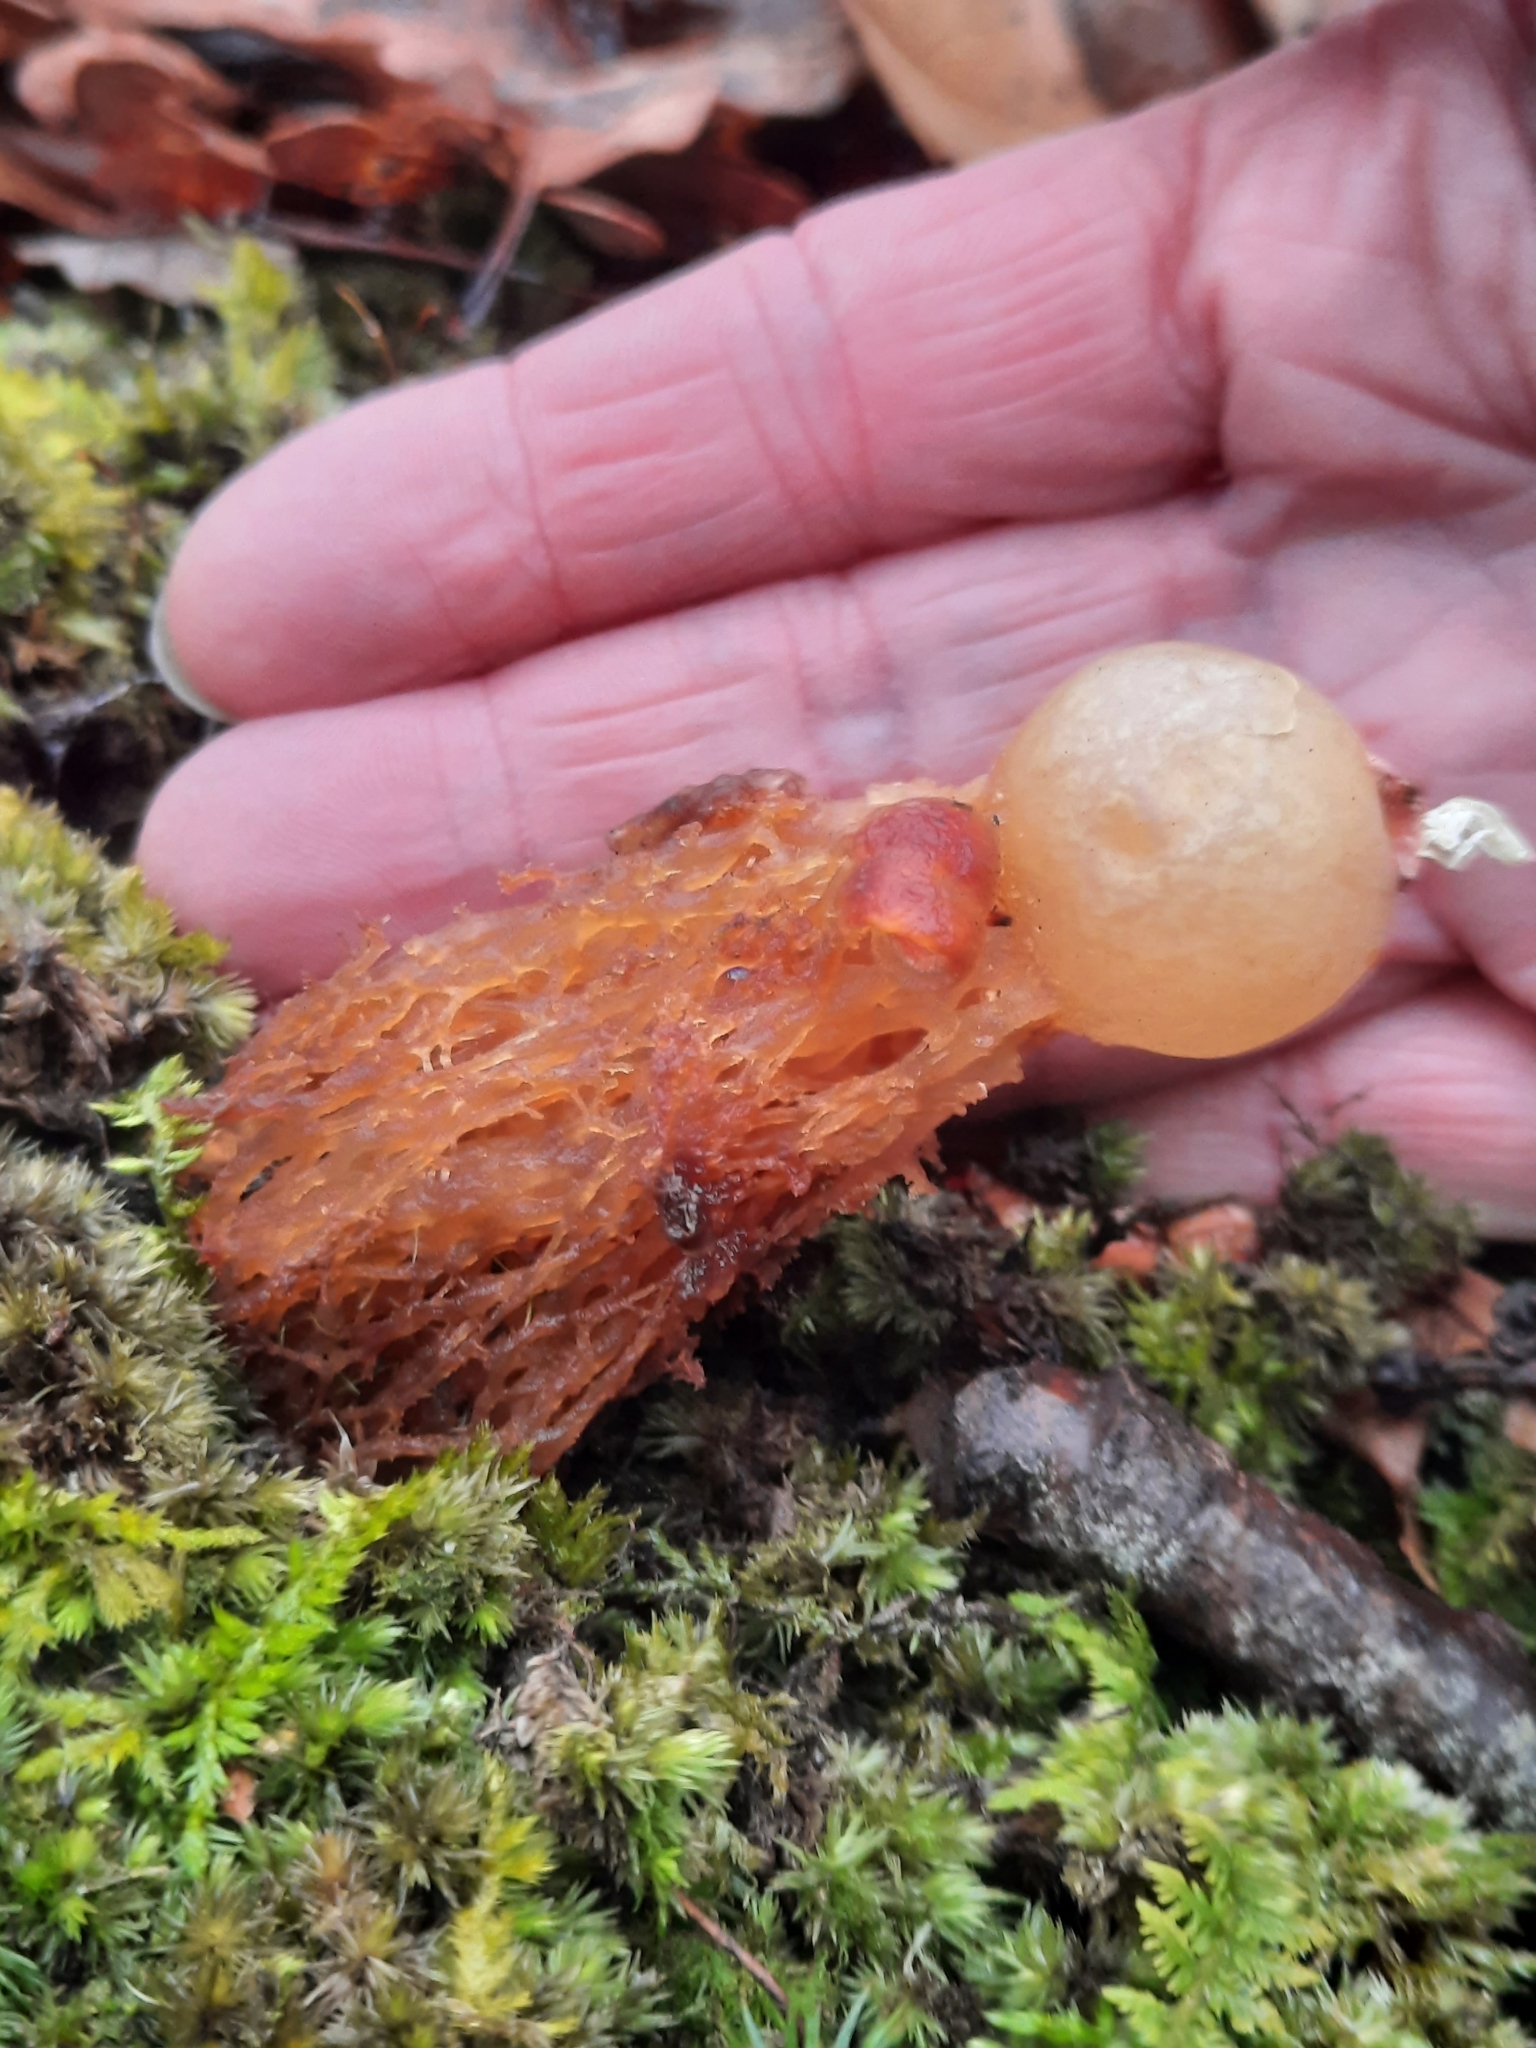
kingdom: Fungi
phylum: Basidiomycota
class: Agaricomycetes
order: Boletales
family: Calostomataceae
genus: Calostoma
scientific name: Calostoma cinnabarinum
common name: Stalked puffball-in-aspic
